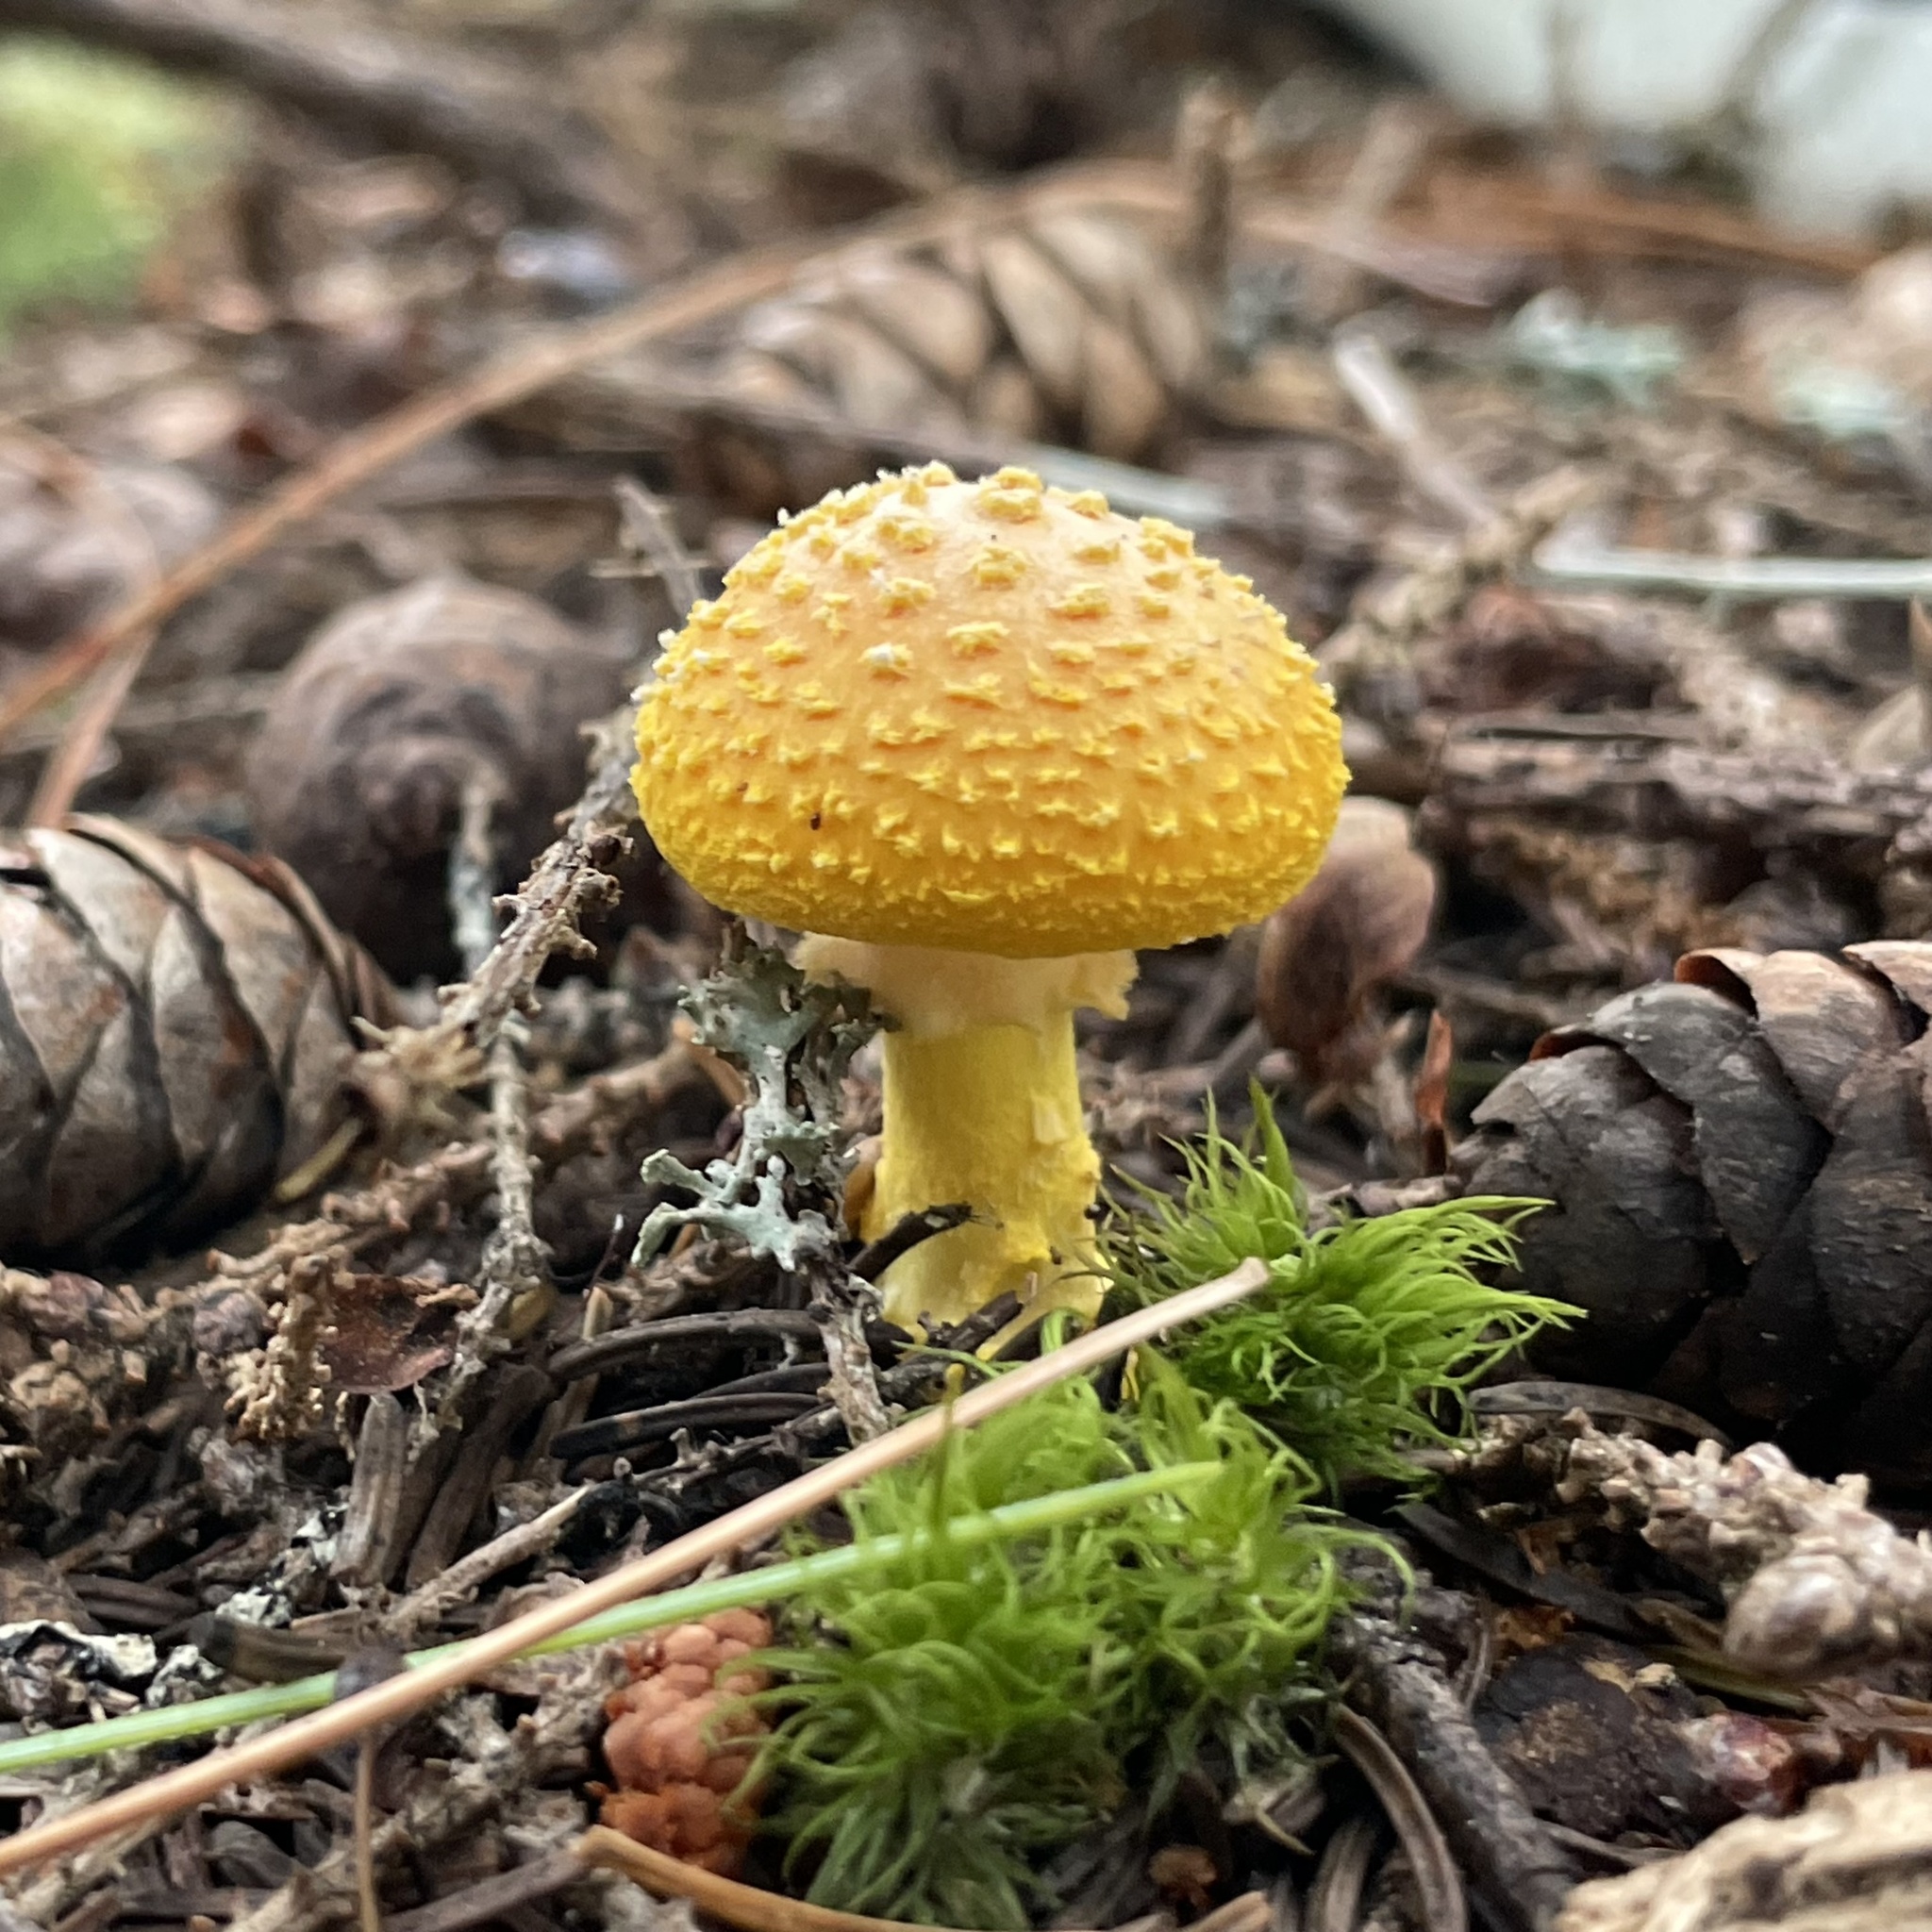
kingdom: Fungi
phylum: Basidiomycota
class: Agaricomycetes
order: Agaricales
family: Amanitaceae
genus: Amanita
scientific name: Amanita flavoconia
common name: Yellow patches
